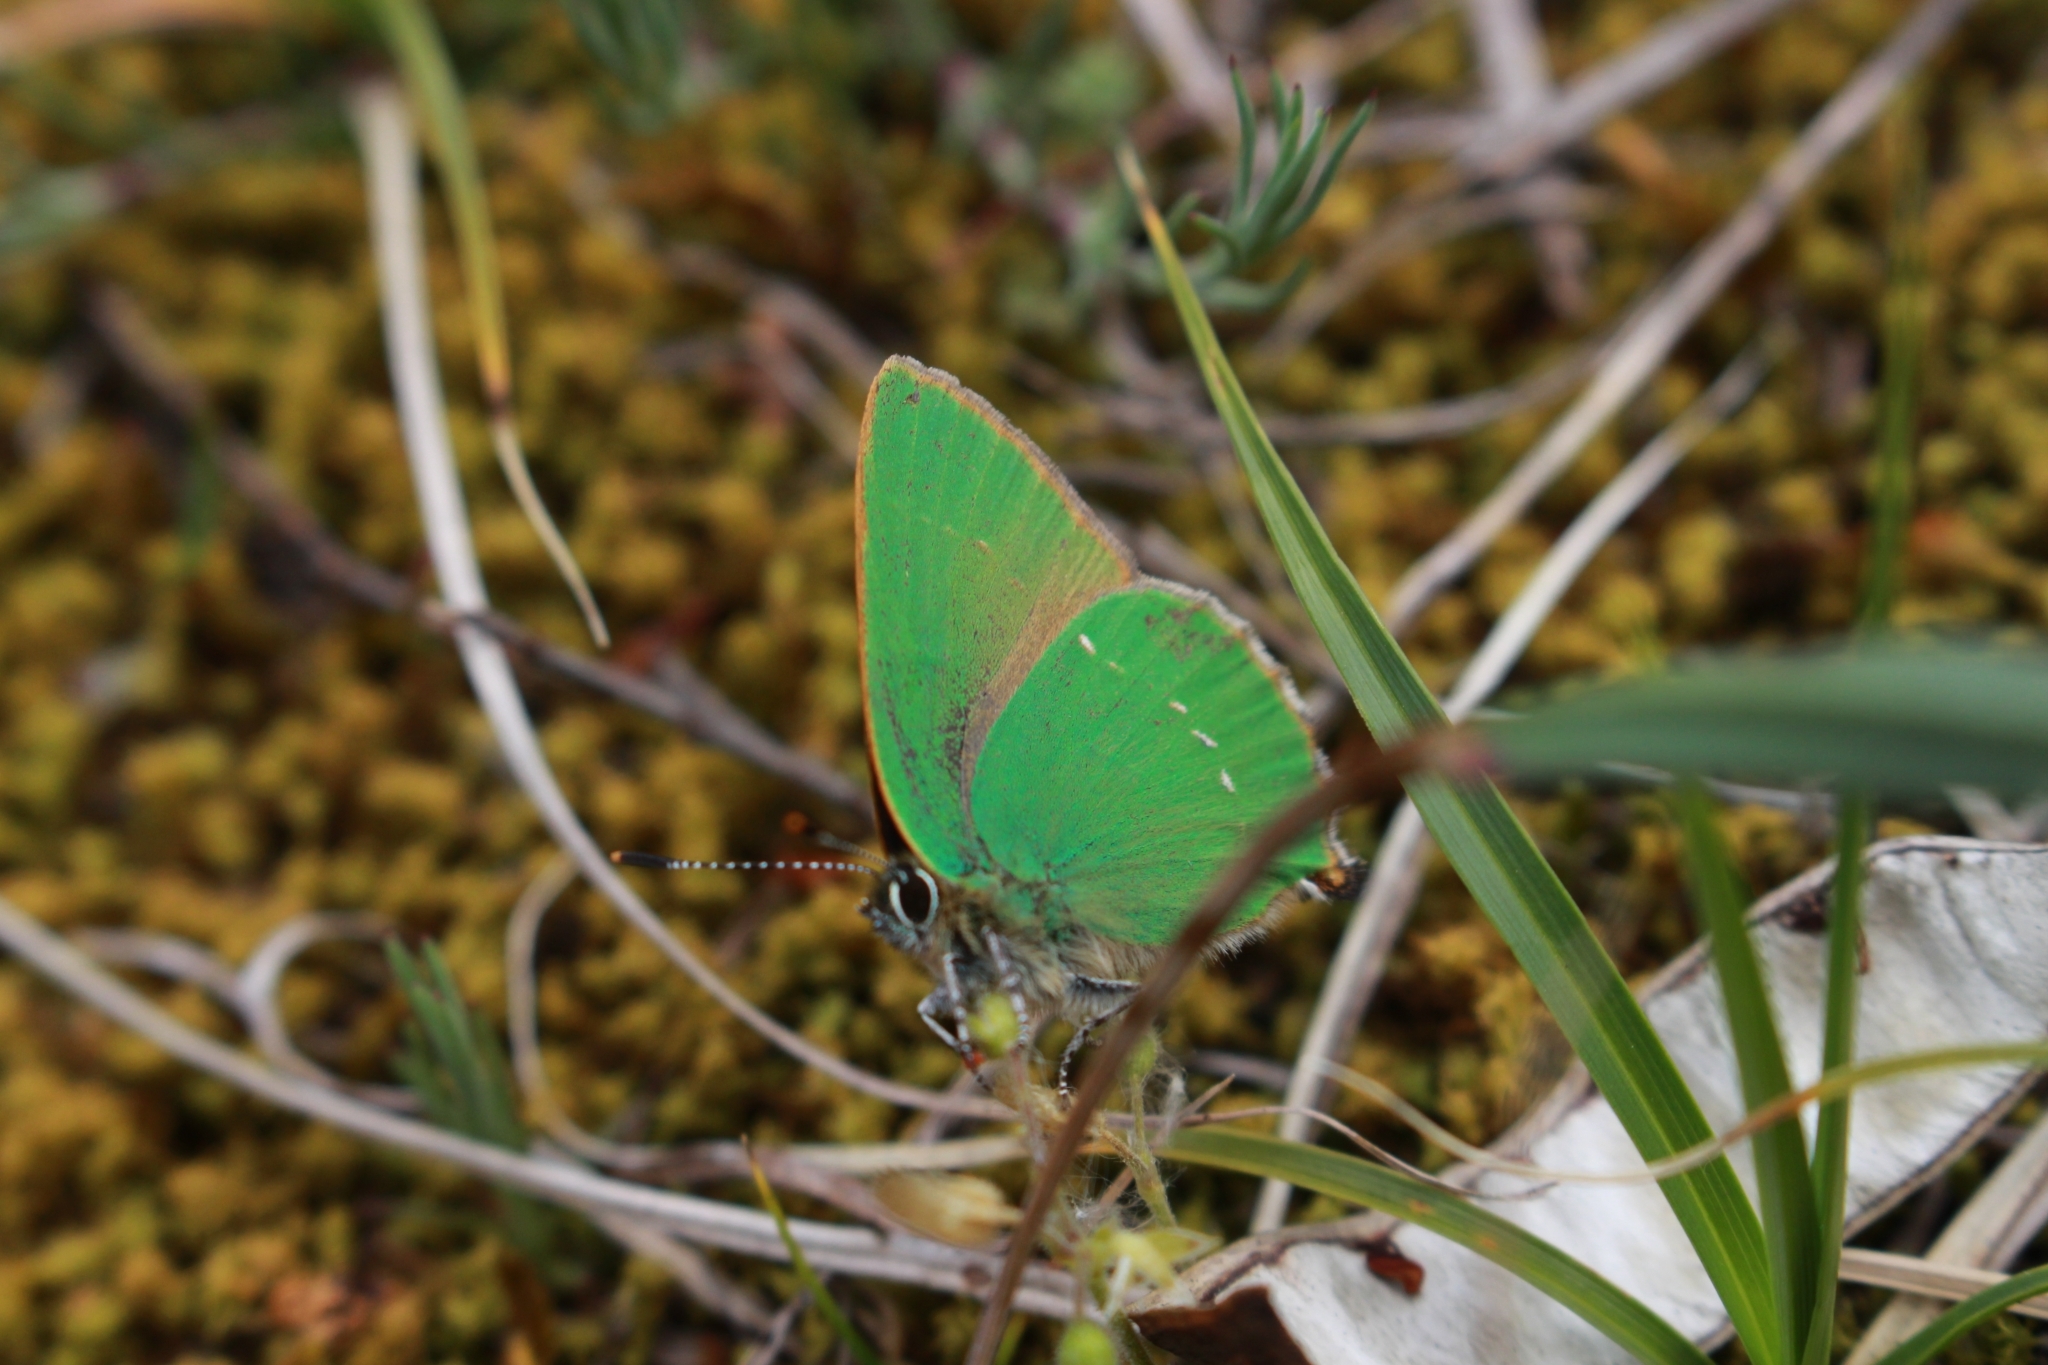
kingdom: Animalia
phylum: Arthropoda
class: Insecta
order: Lepidoptera
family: Lycaenidae
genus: Callophrys
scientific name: Callophrys rubi
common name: Green hairstreak
